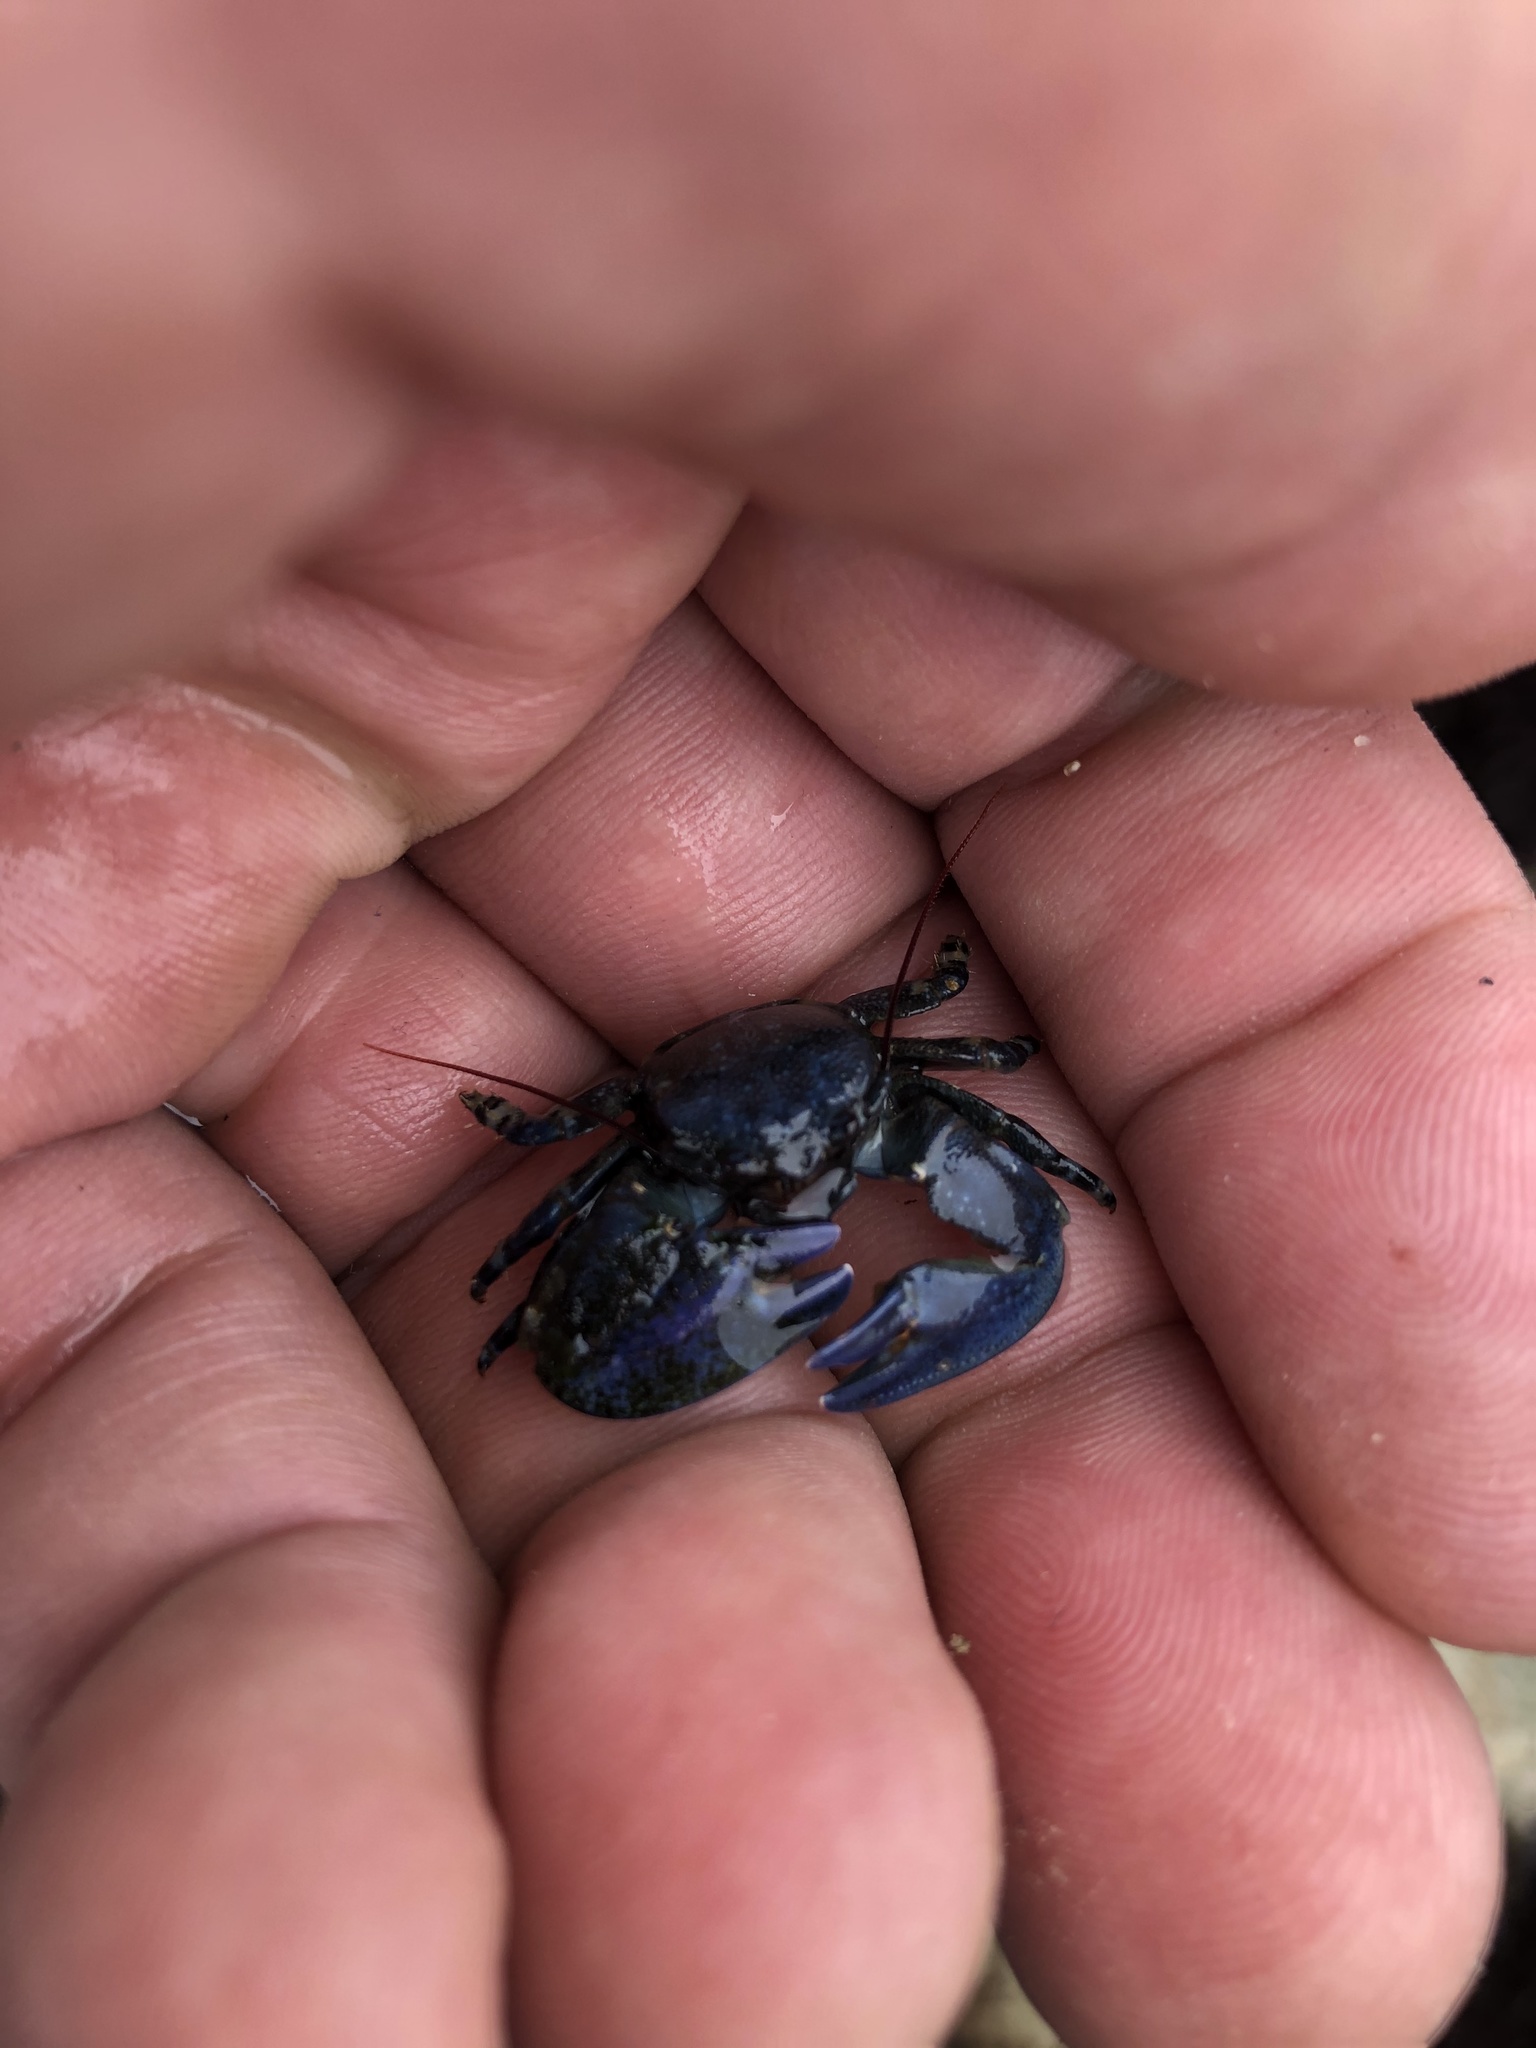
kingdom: Animalia
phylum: Arthropoda
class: Malacostraca
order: Decapoda
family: Porcellanidae
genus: Petrolisthes
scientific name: Petrolisthes cinctipes
